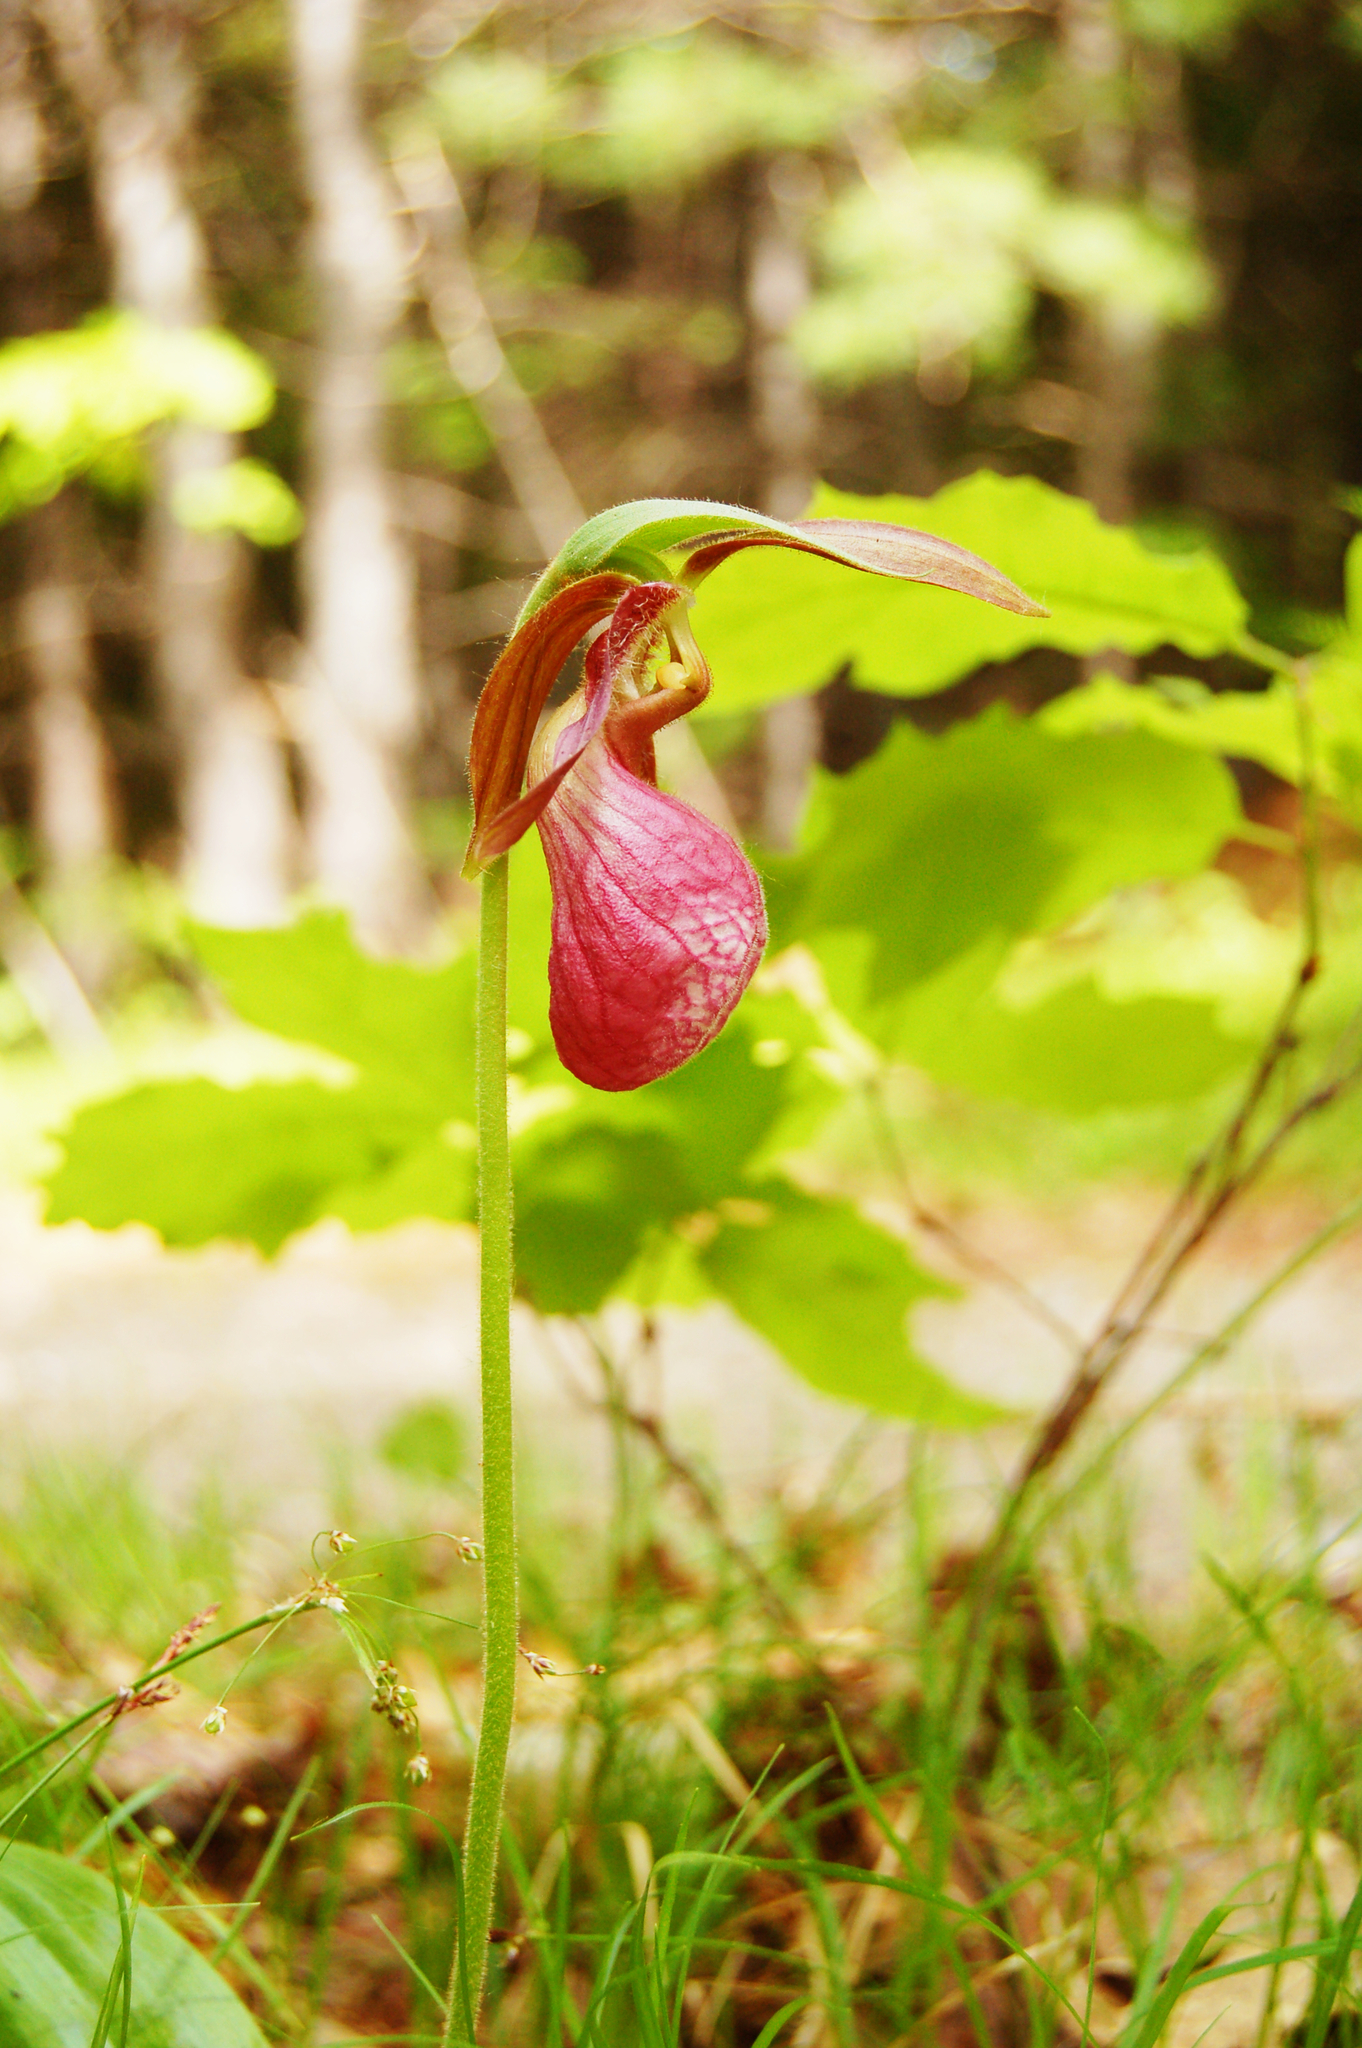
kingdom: Plantae
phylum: Tracheophyta
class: Liliopsida
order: Asparagales
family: Orchidaceae
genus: Cypripedium
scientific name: Cypripedium acaule
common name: Pink lady's-slipper
